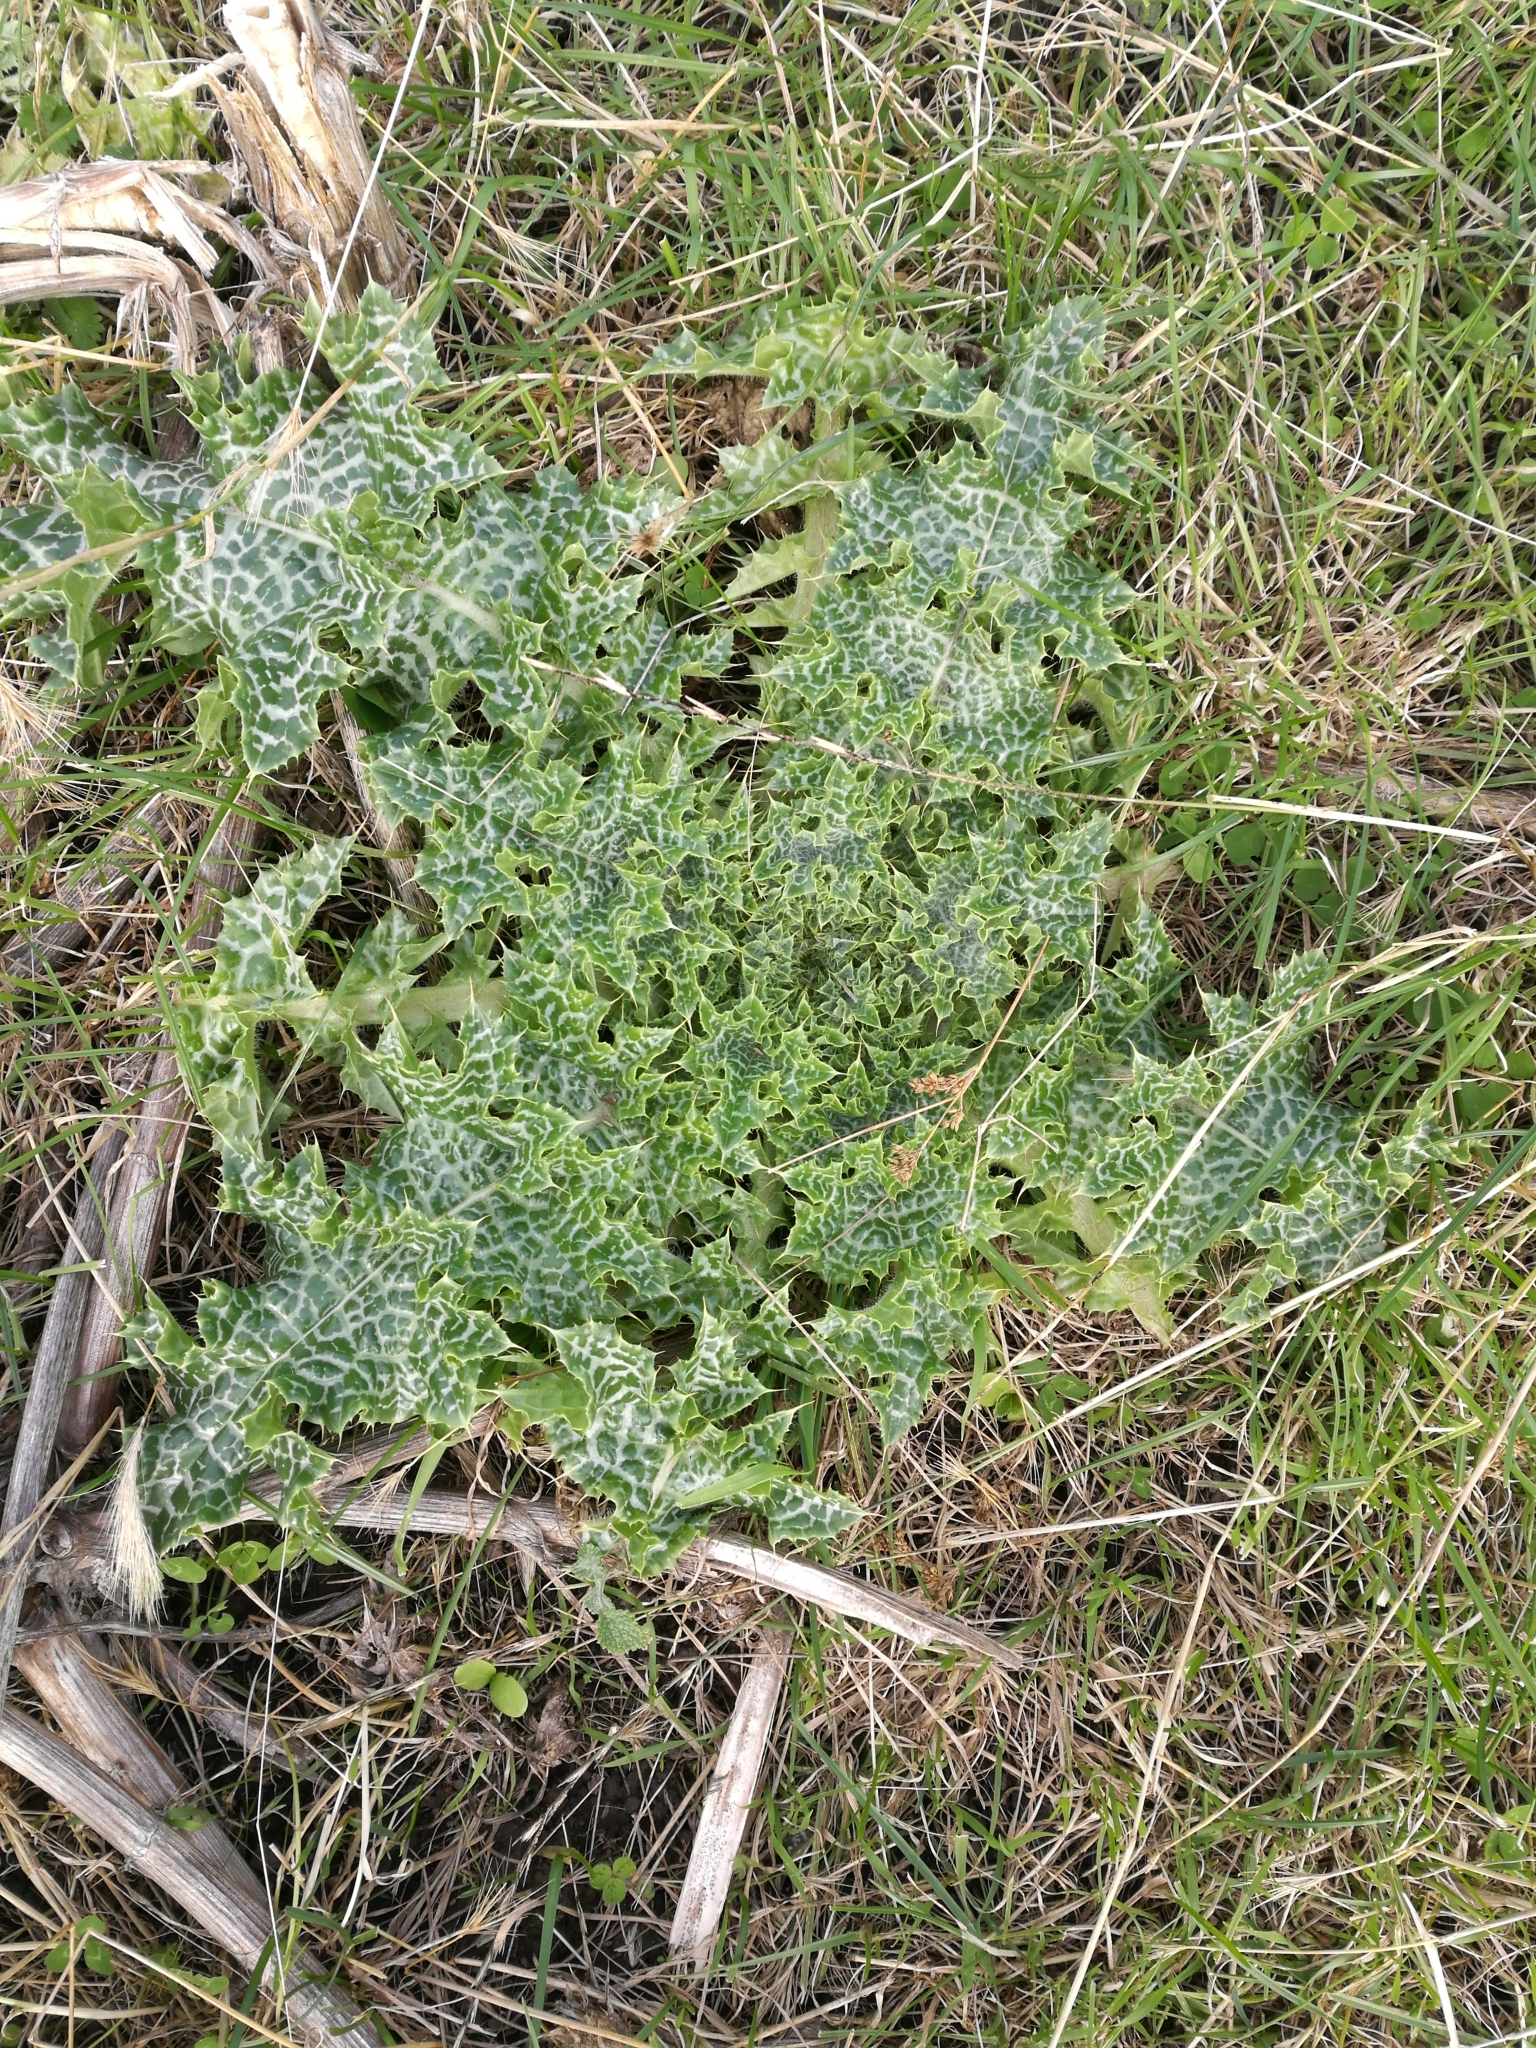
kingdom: Plantae
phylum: Tracheophyta
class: Magnoliopsida
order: Asterales
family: Asteraceae
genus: Silybum
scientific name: Silybum marianum
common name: Milk thistle
